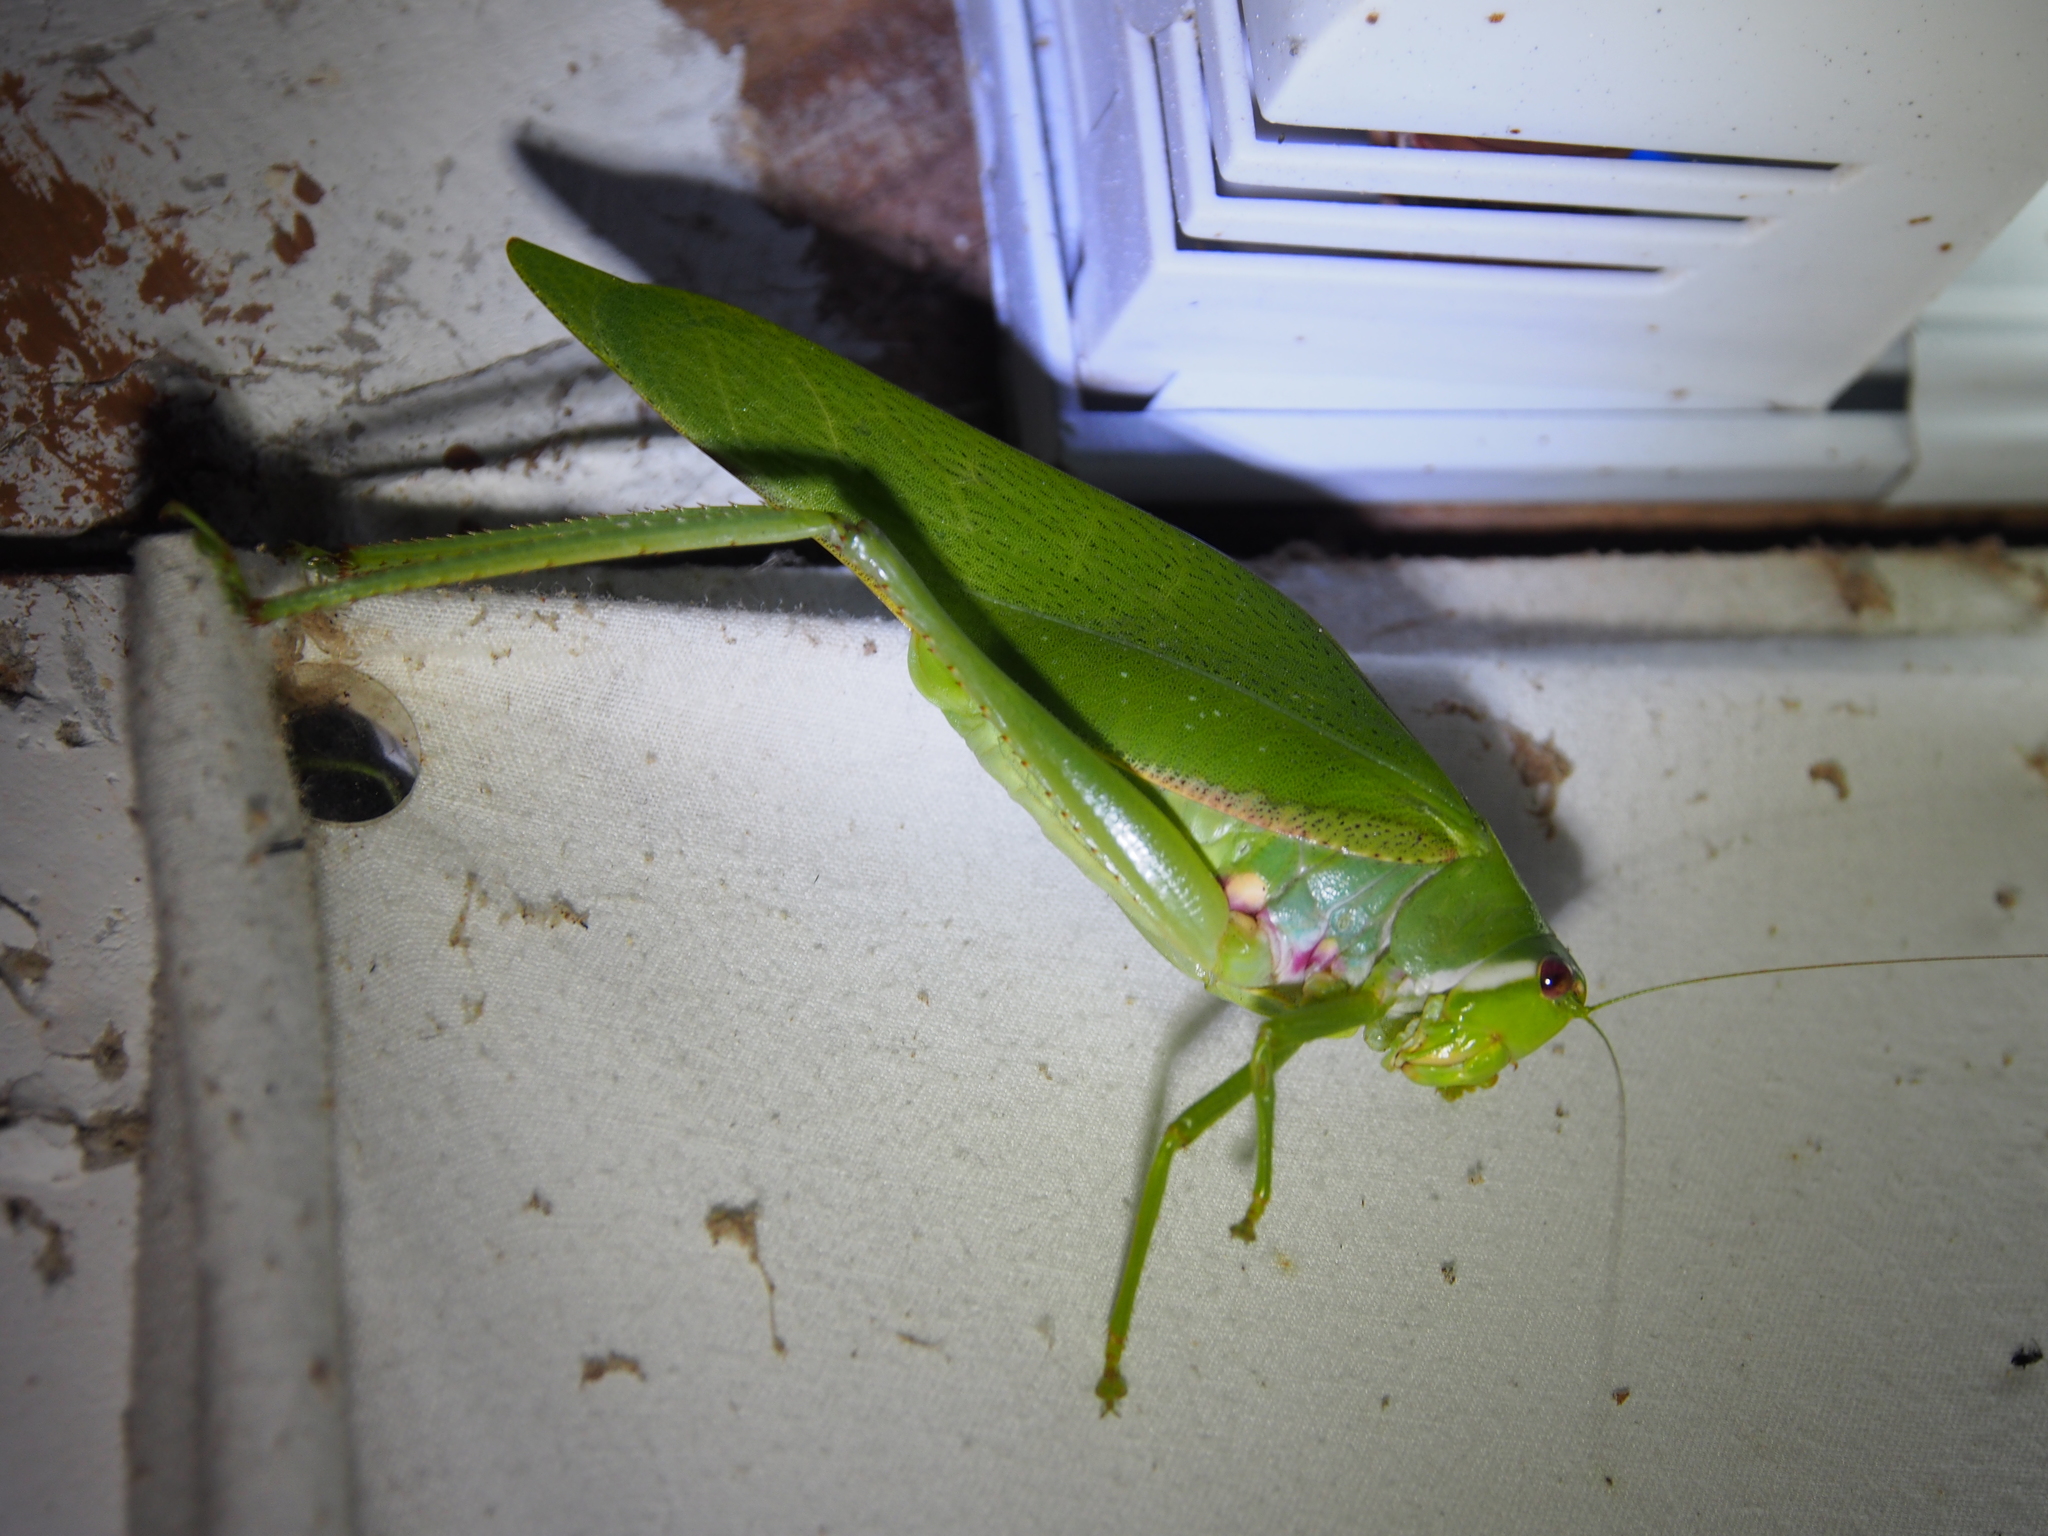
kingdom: Animalia
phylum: Arthropoda
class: Insecta
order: Orthoptera
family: Tettigoniidae
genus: Philophyllia
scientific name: Philophyllia guttulata
